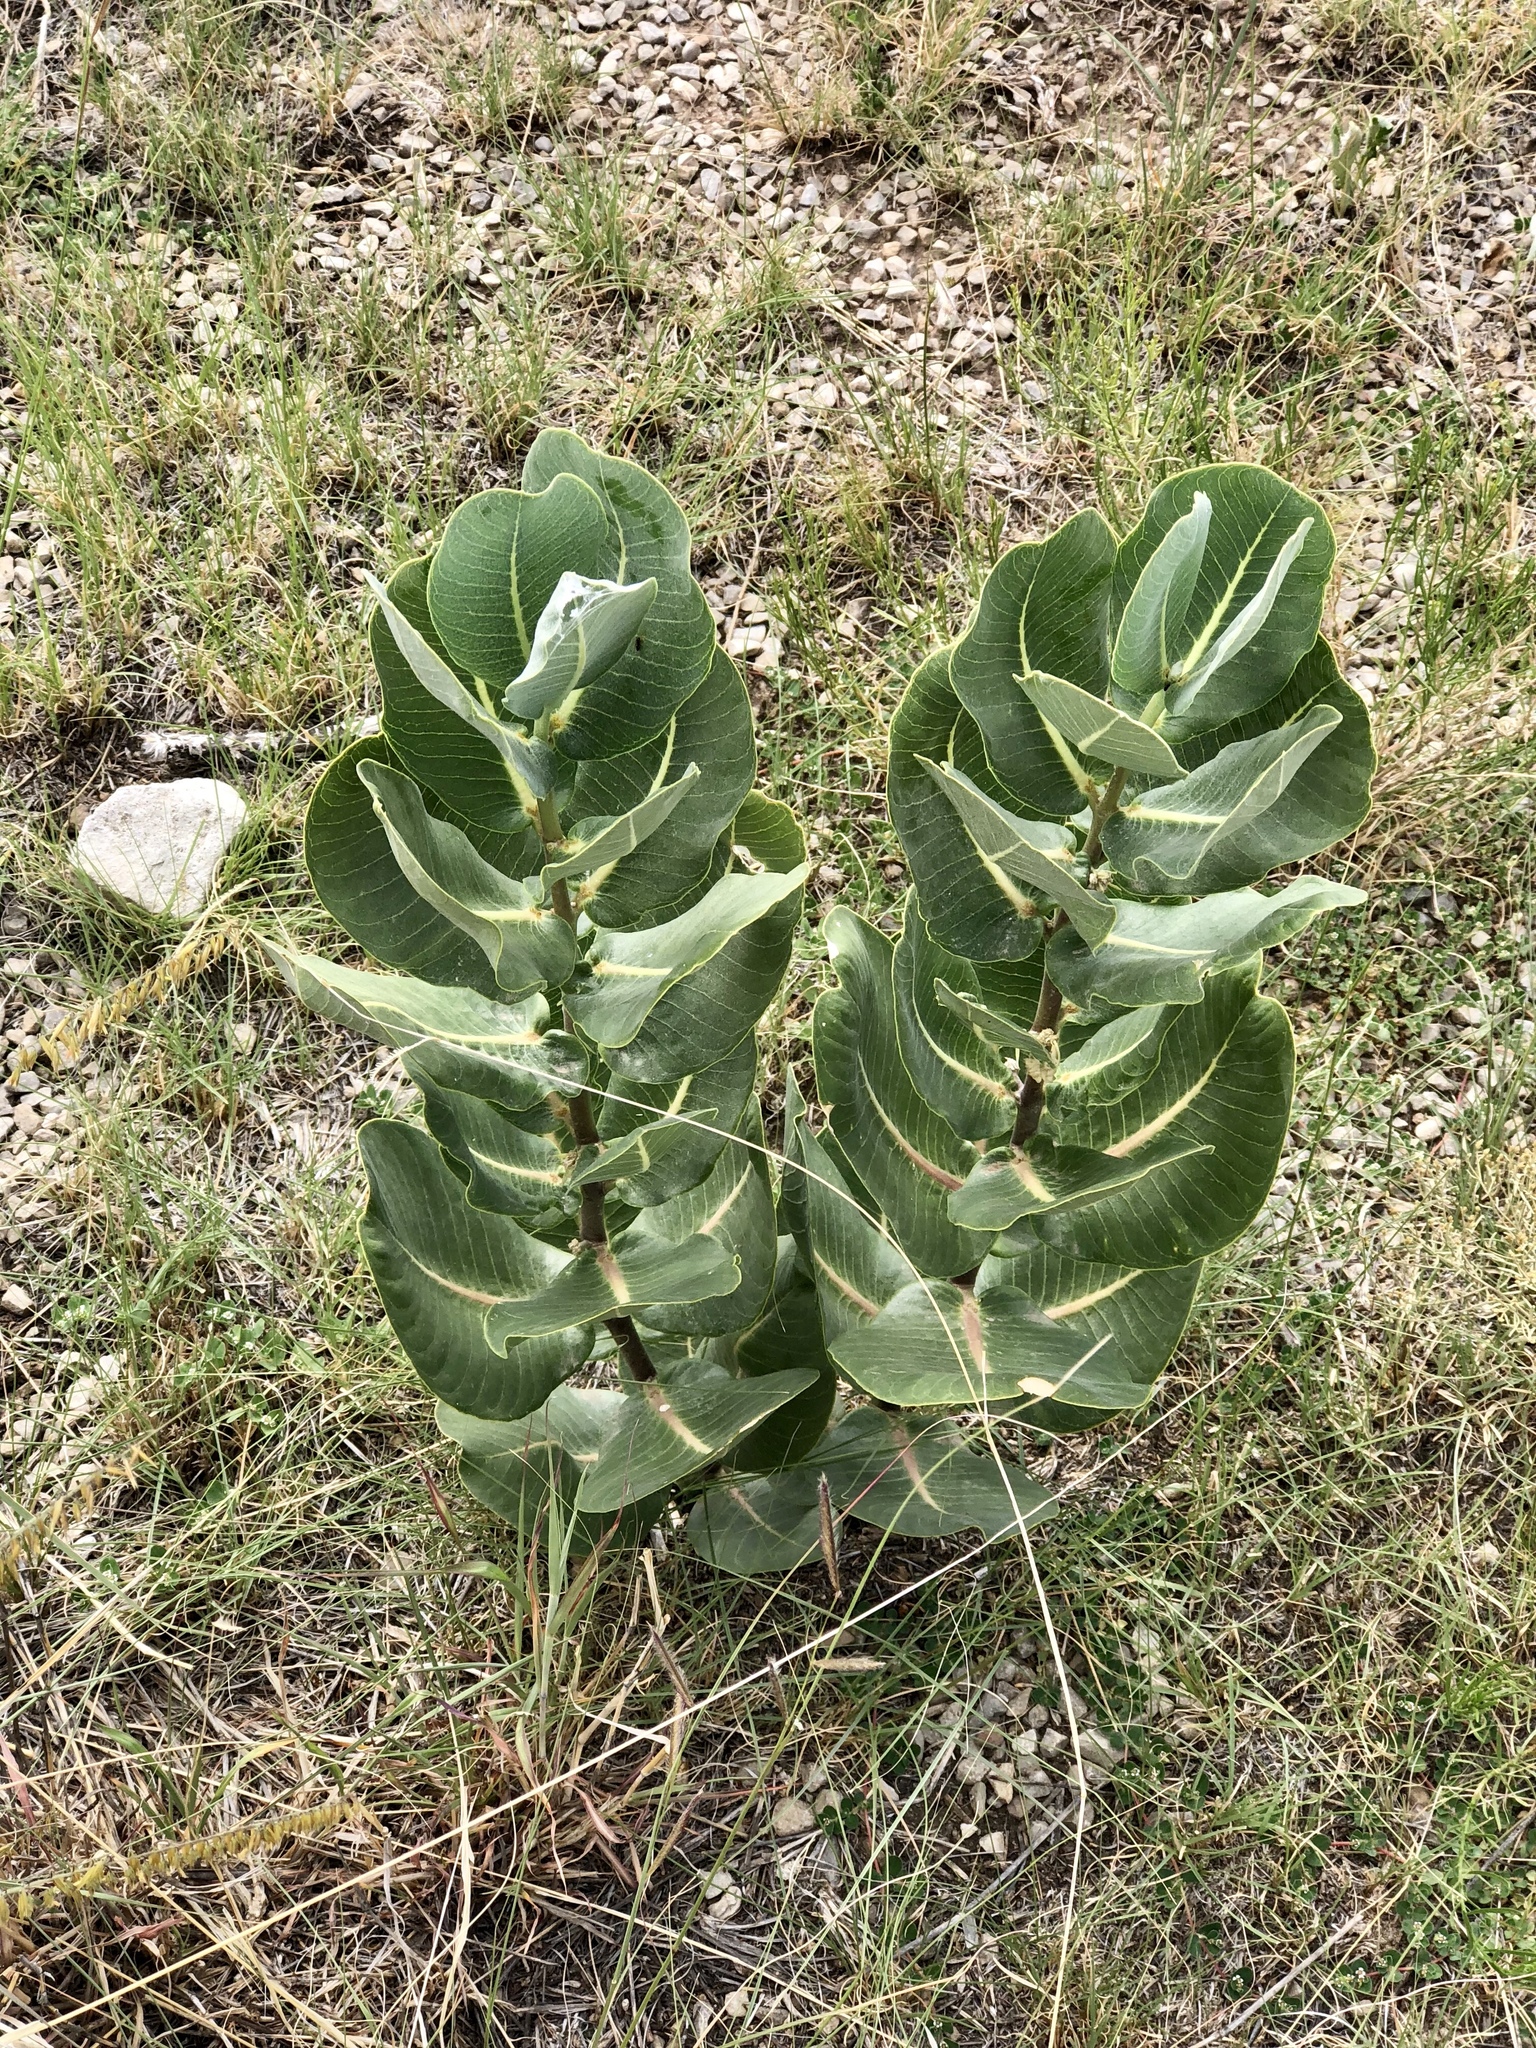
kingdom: Plantae
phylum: Tracheophyta
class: Magnoliopsida
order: Gentianales
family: Apocynaceae
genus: Asclepias
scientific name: Asclepias latifolia
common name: Broadleaf milkweed
